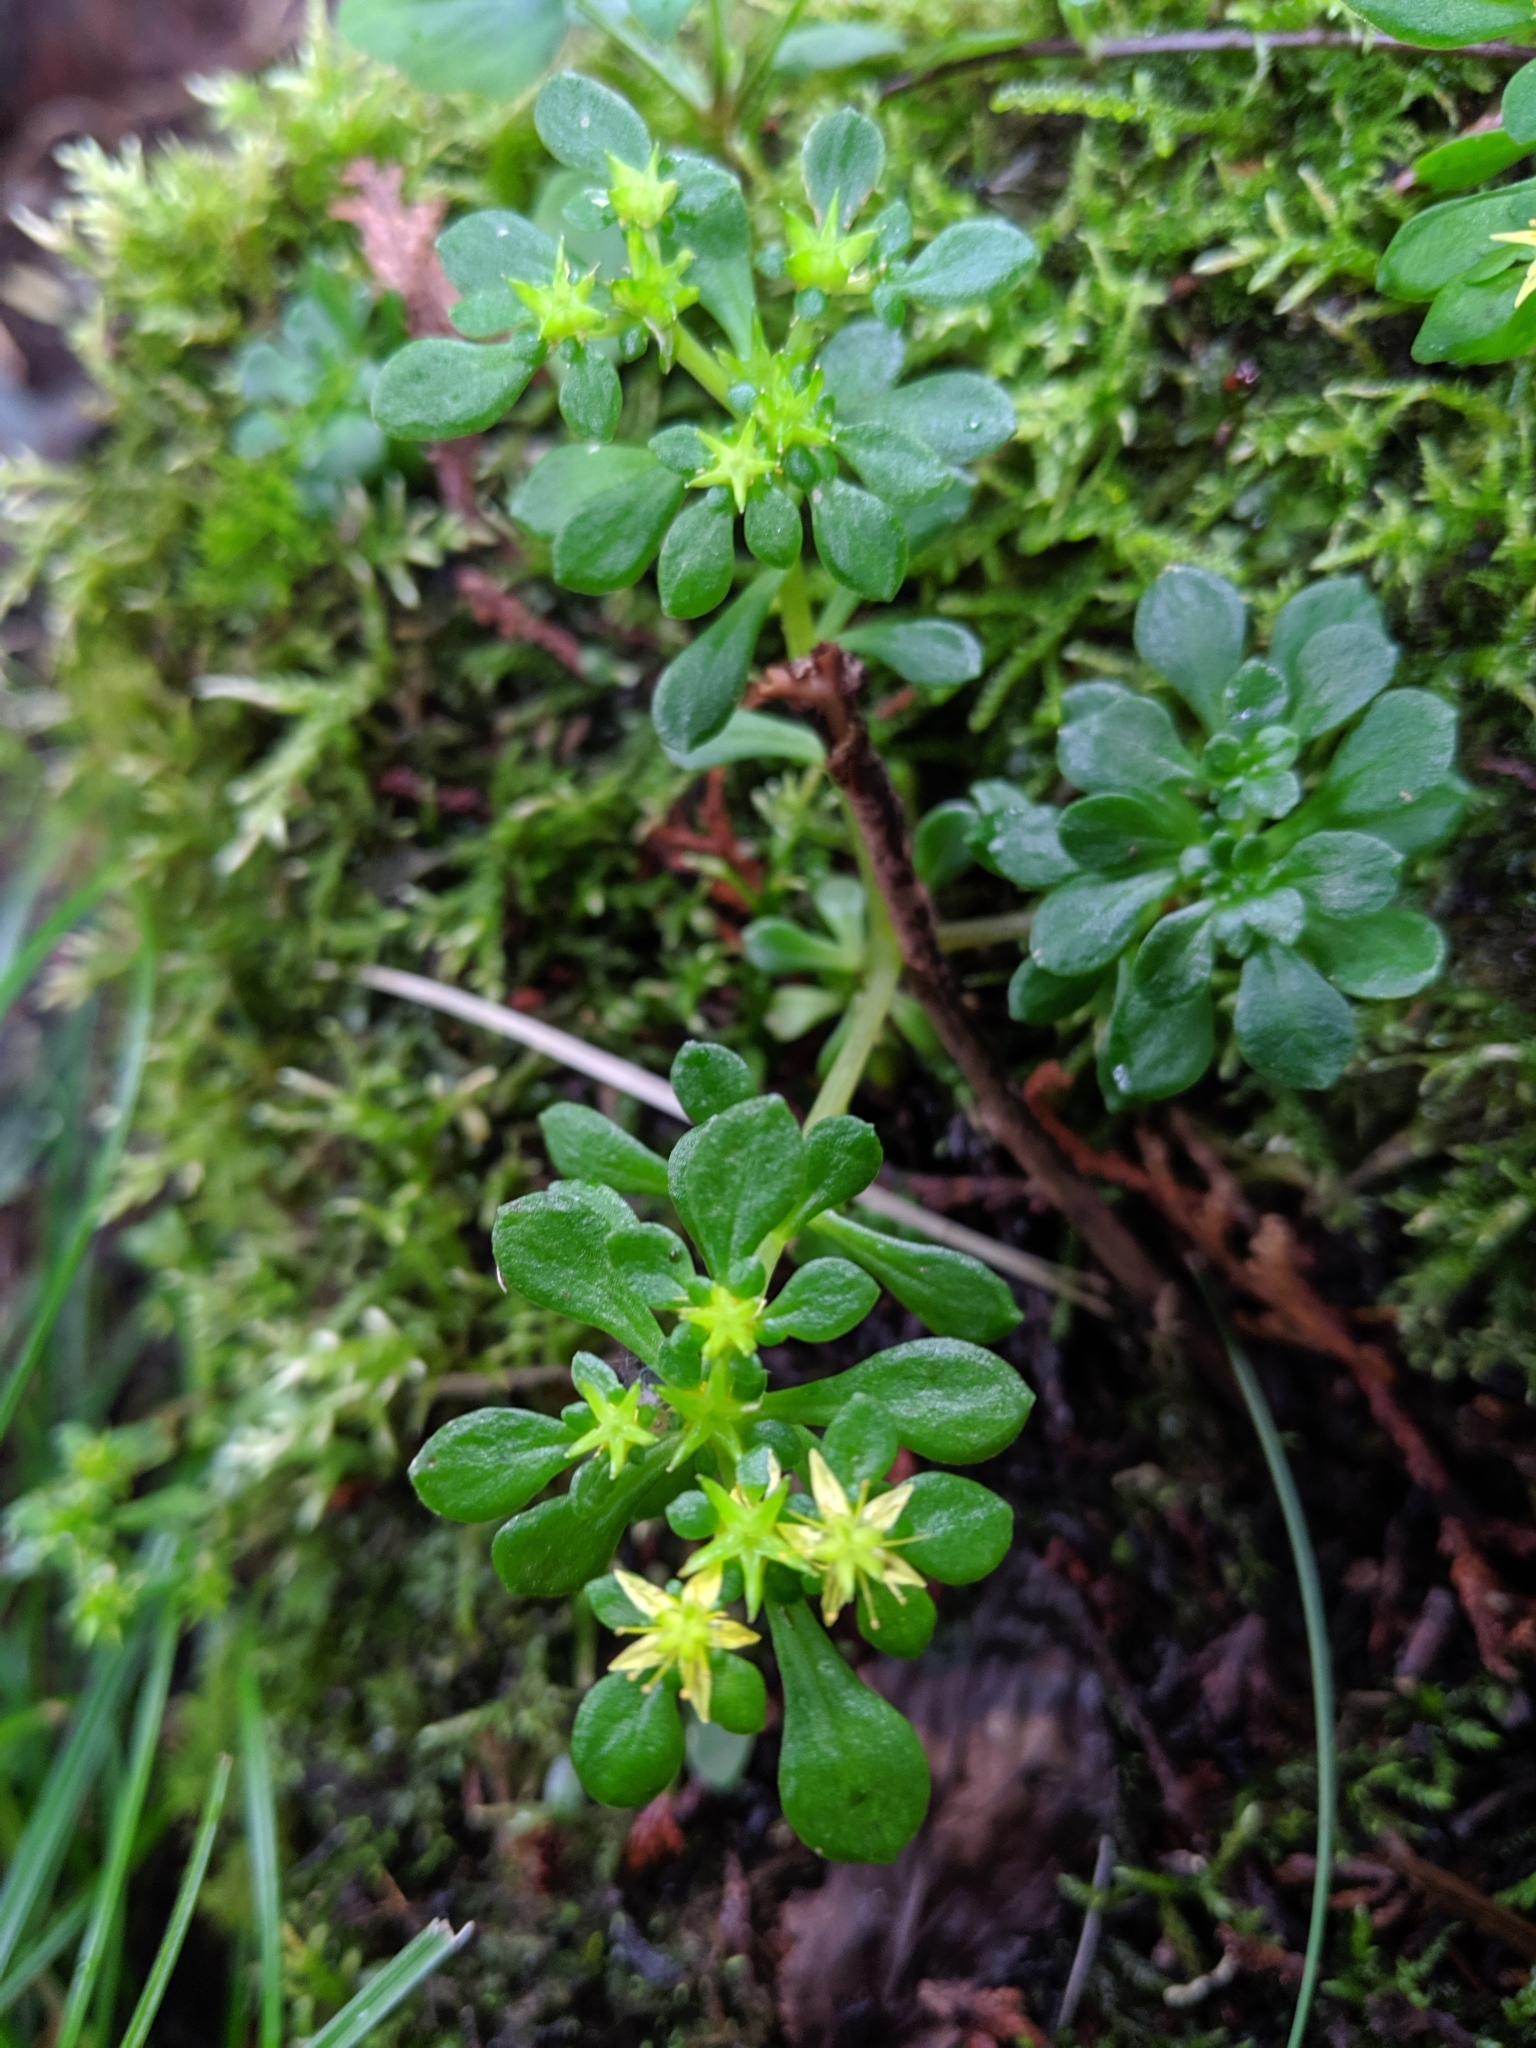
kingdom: Plantae
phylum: Tracheophyta
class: Magnoliopsida
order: Saxifragales
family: Crassulaceae
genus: Sedum
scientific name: Sedum formosanum
